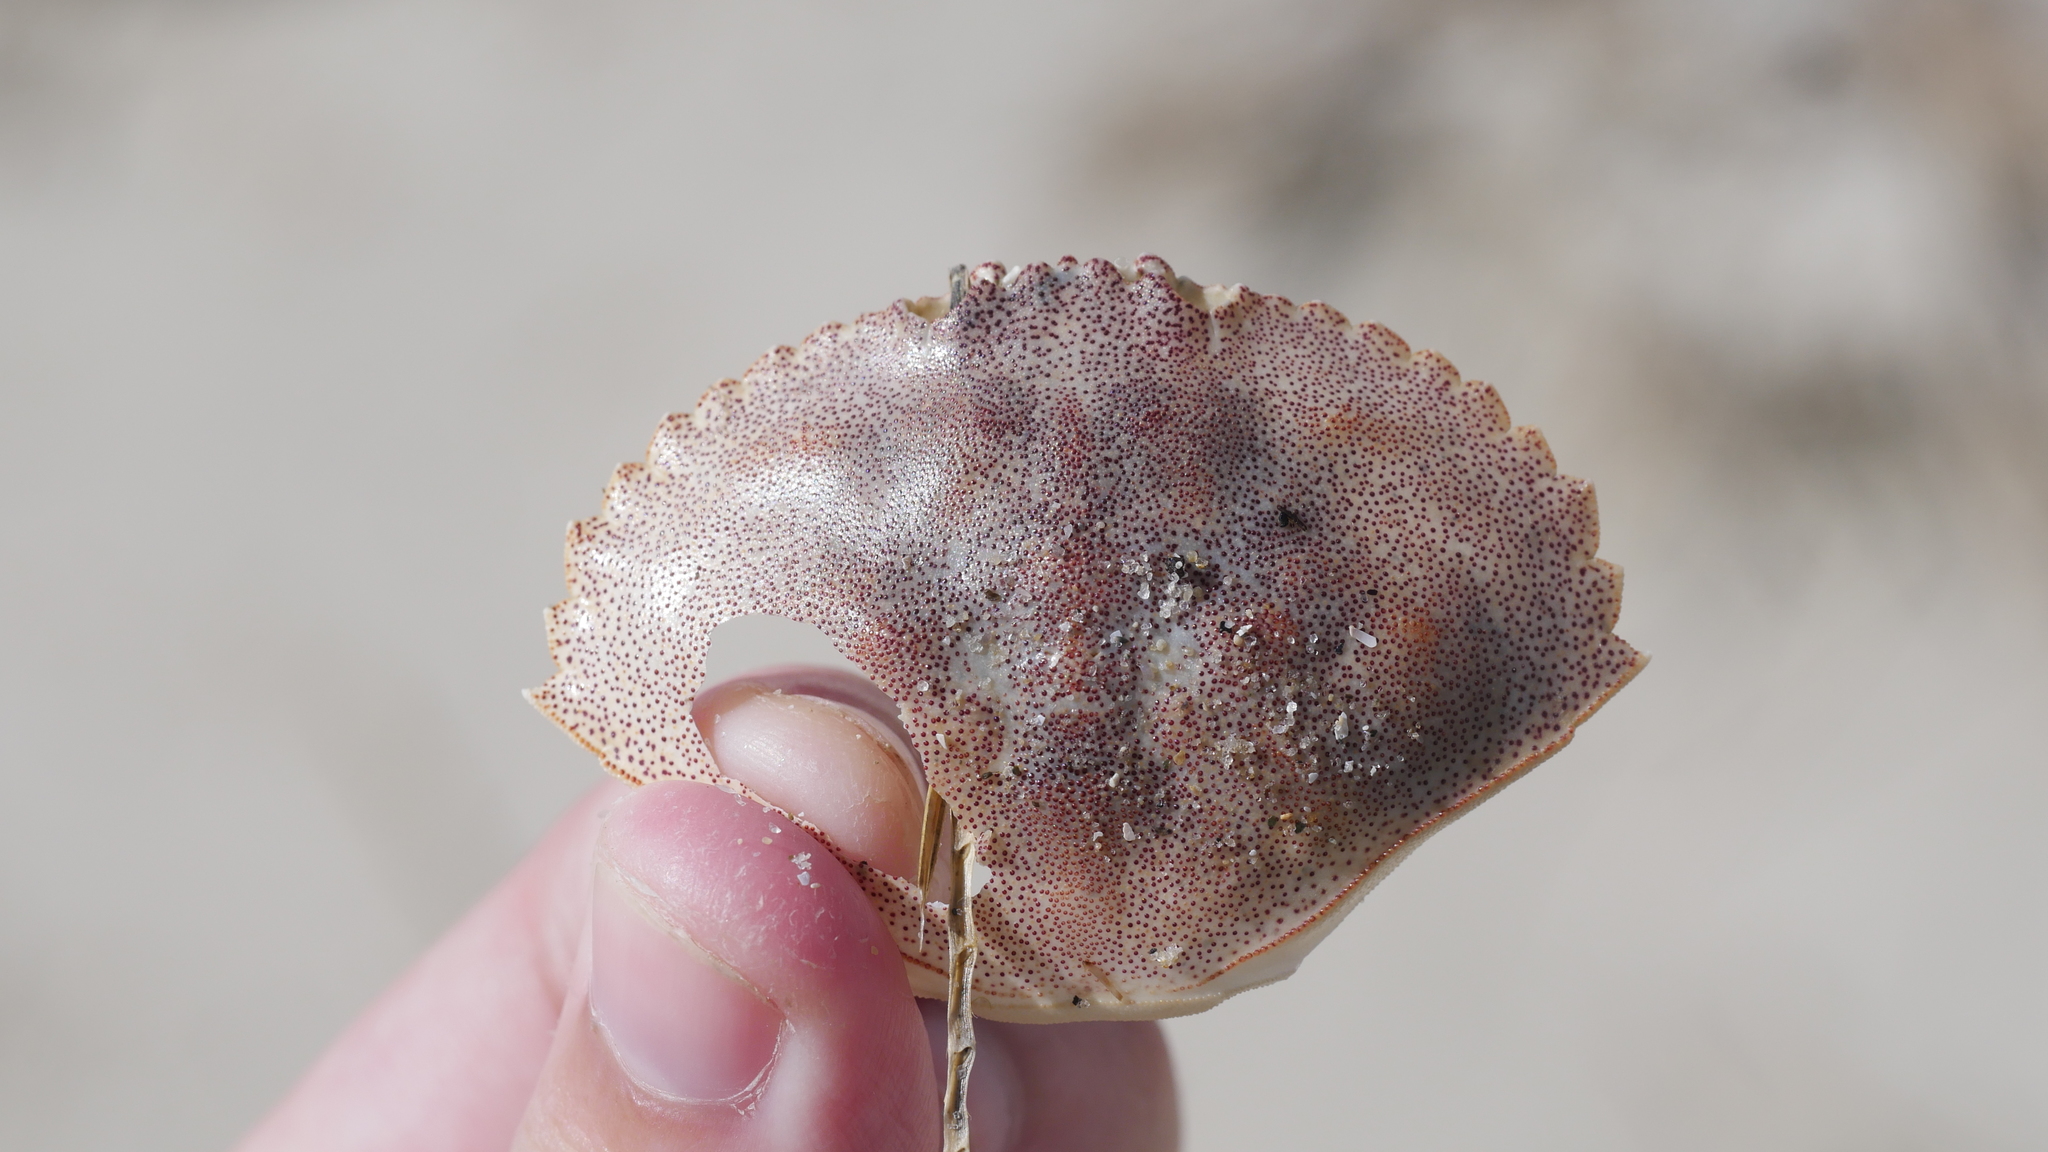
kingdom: Animalia
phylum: Arthropoda
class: Malacostraca
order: Decapoda
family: Cancridae
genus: Cancer
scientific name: Cancer irroratus
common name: Atlantic rock crab
